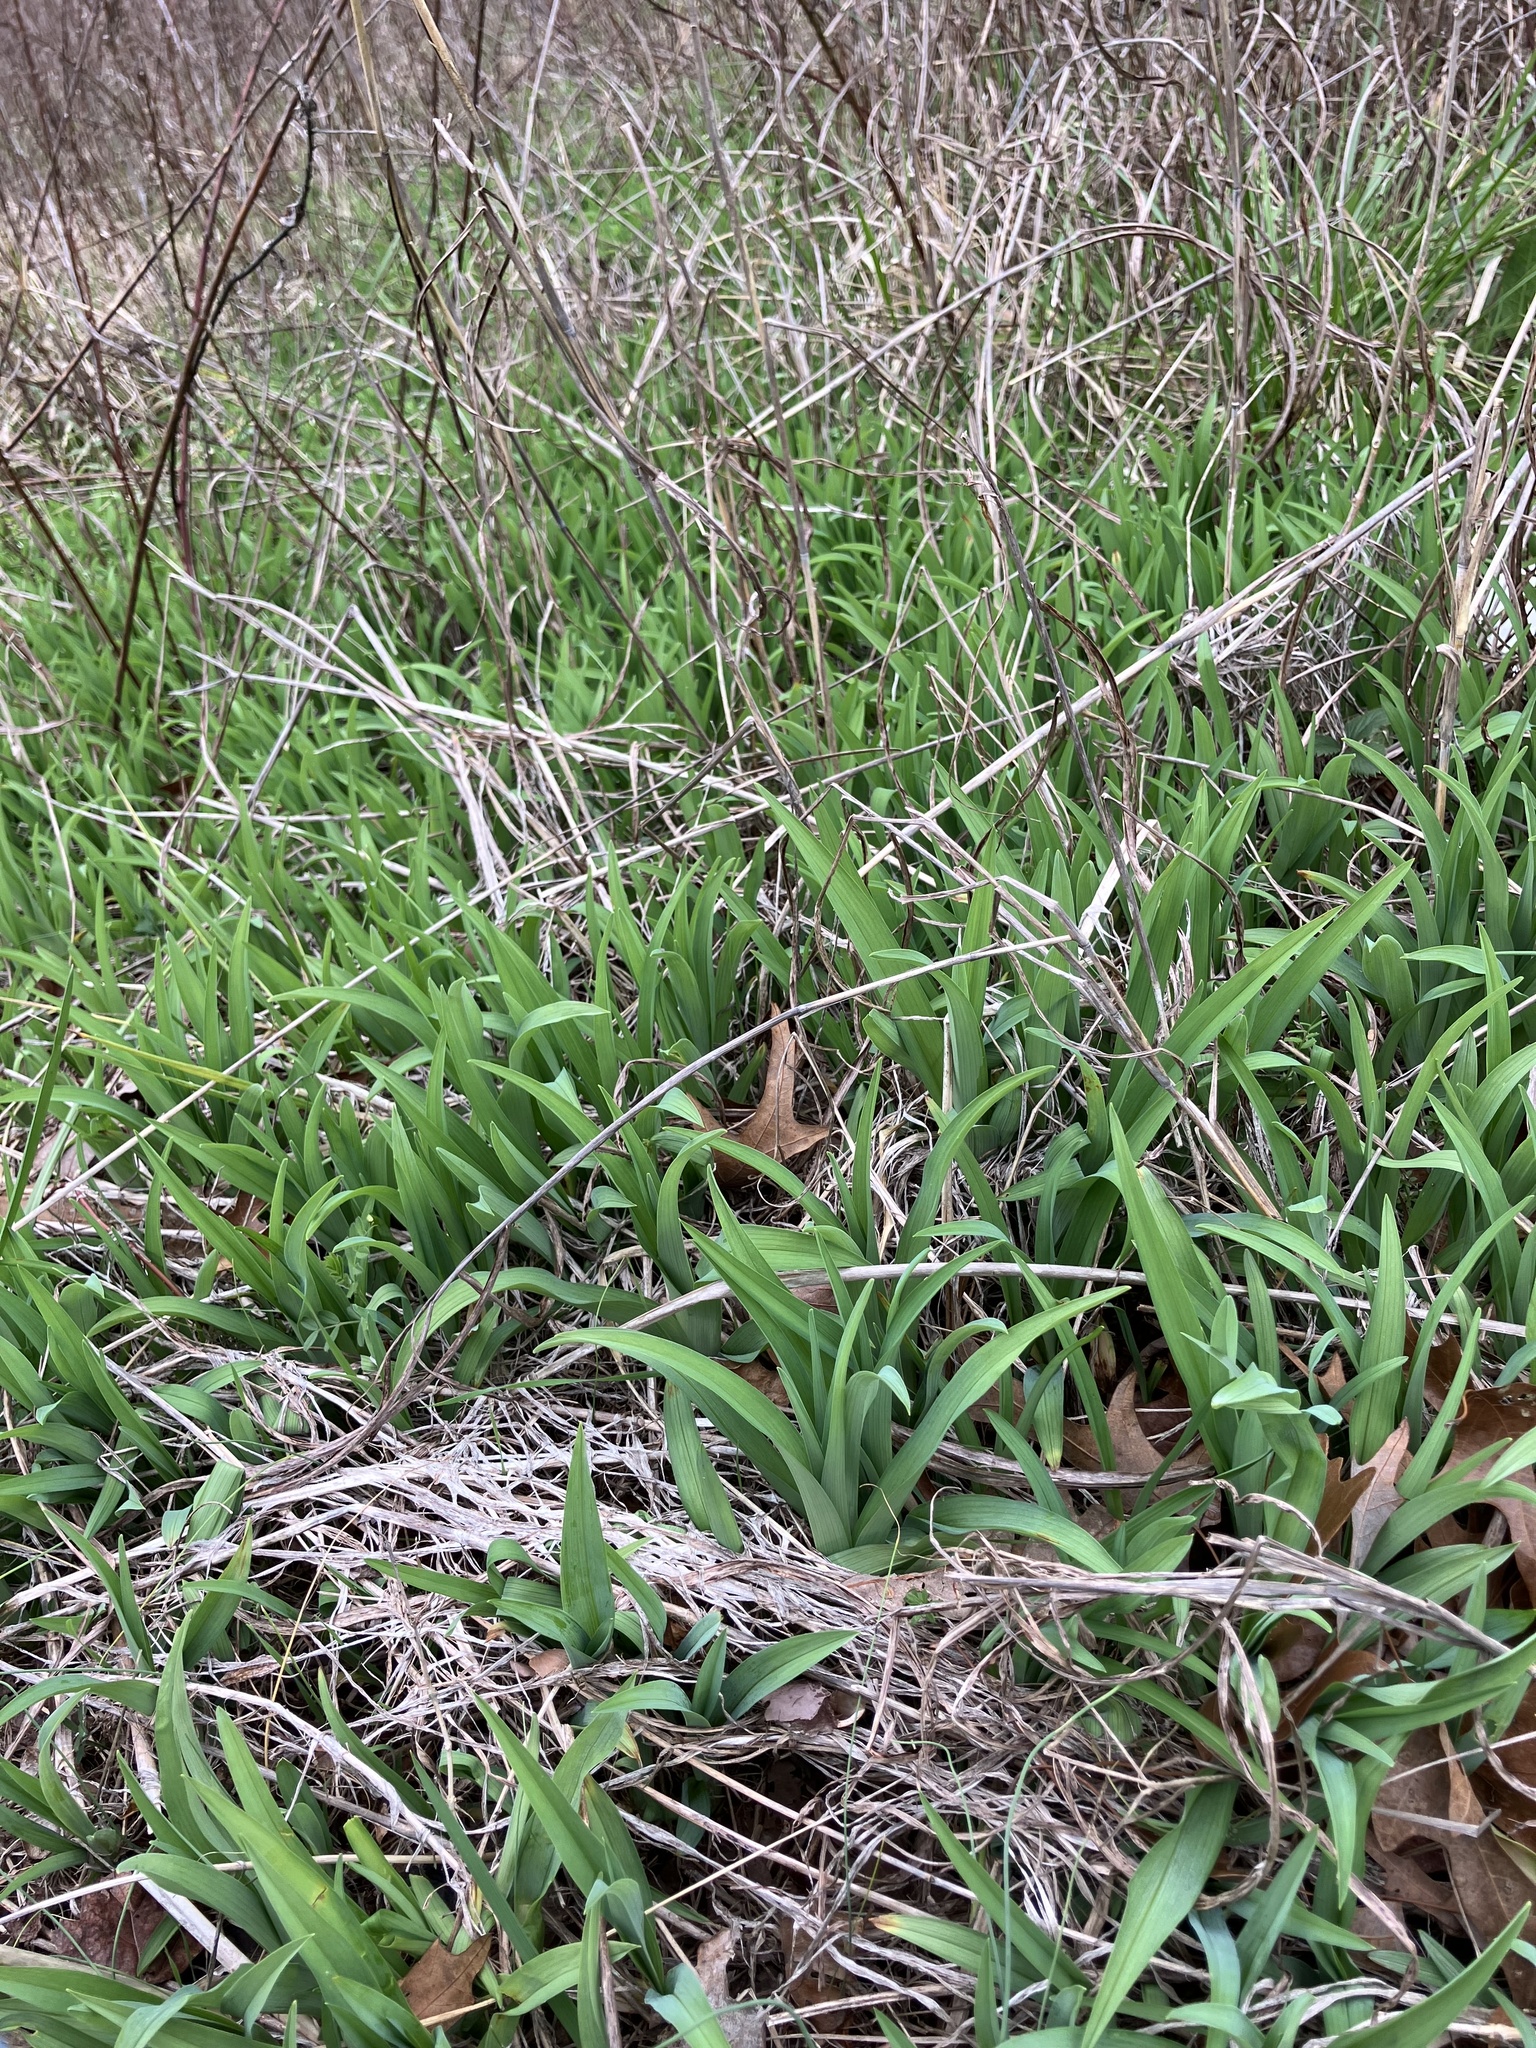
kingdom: Plantae
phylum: Tracheophyta
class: Liliopsida
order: Asparagales
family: Asphodelaceae
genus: Hemerocallis
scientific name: Hemerocallis fulva
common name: Orange day-lily
